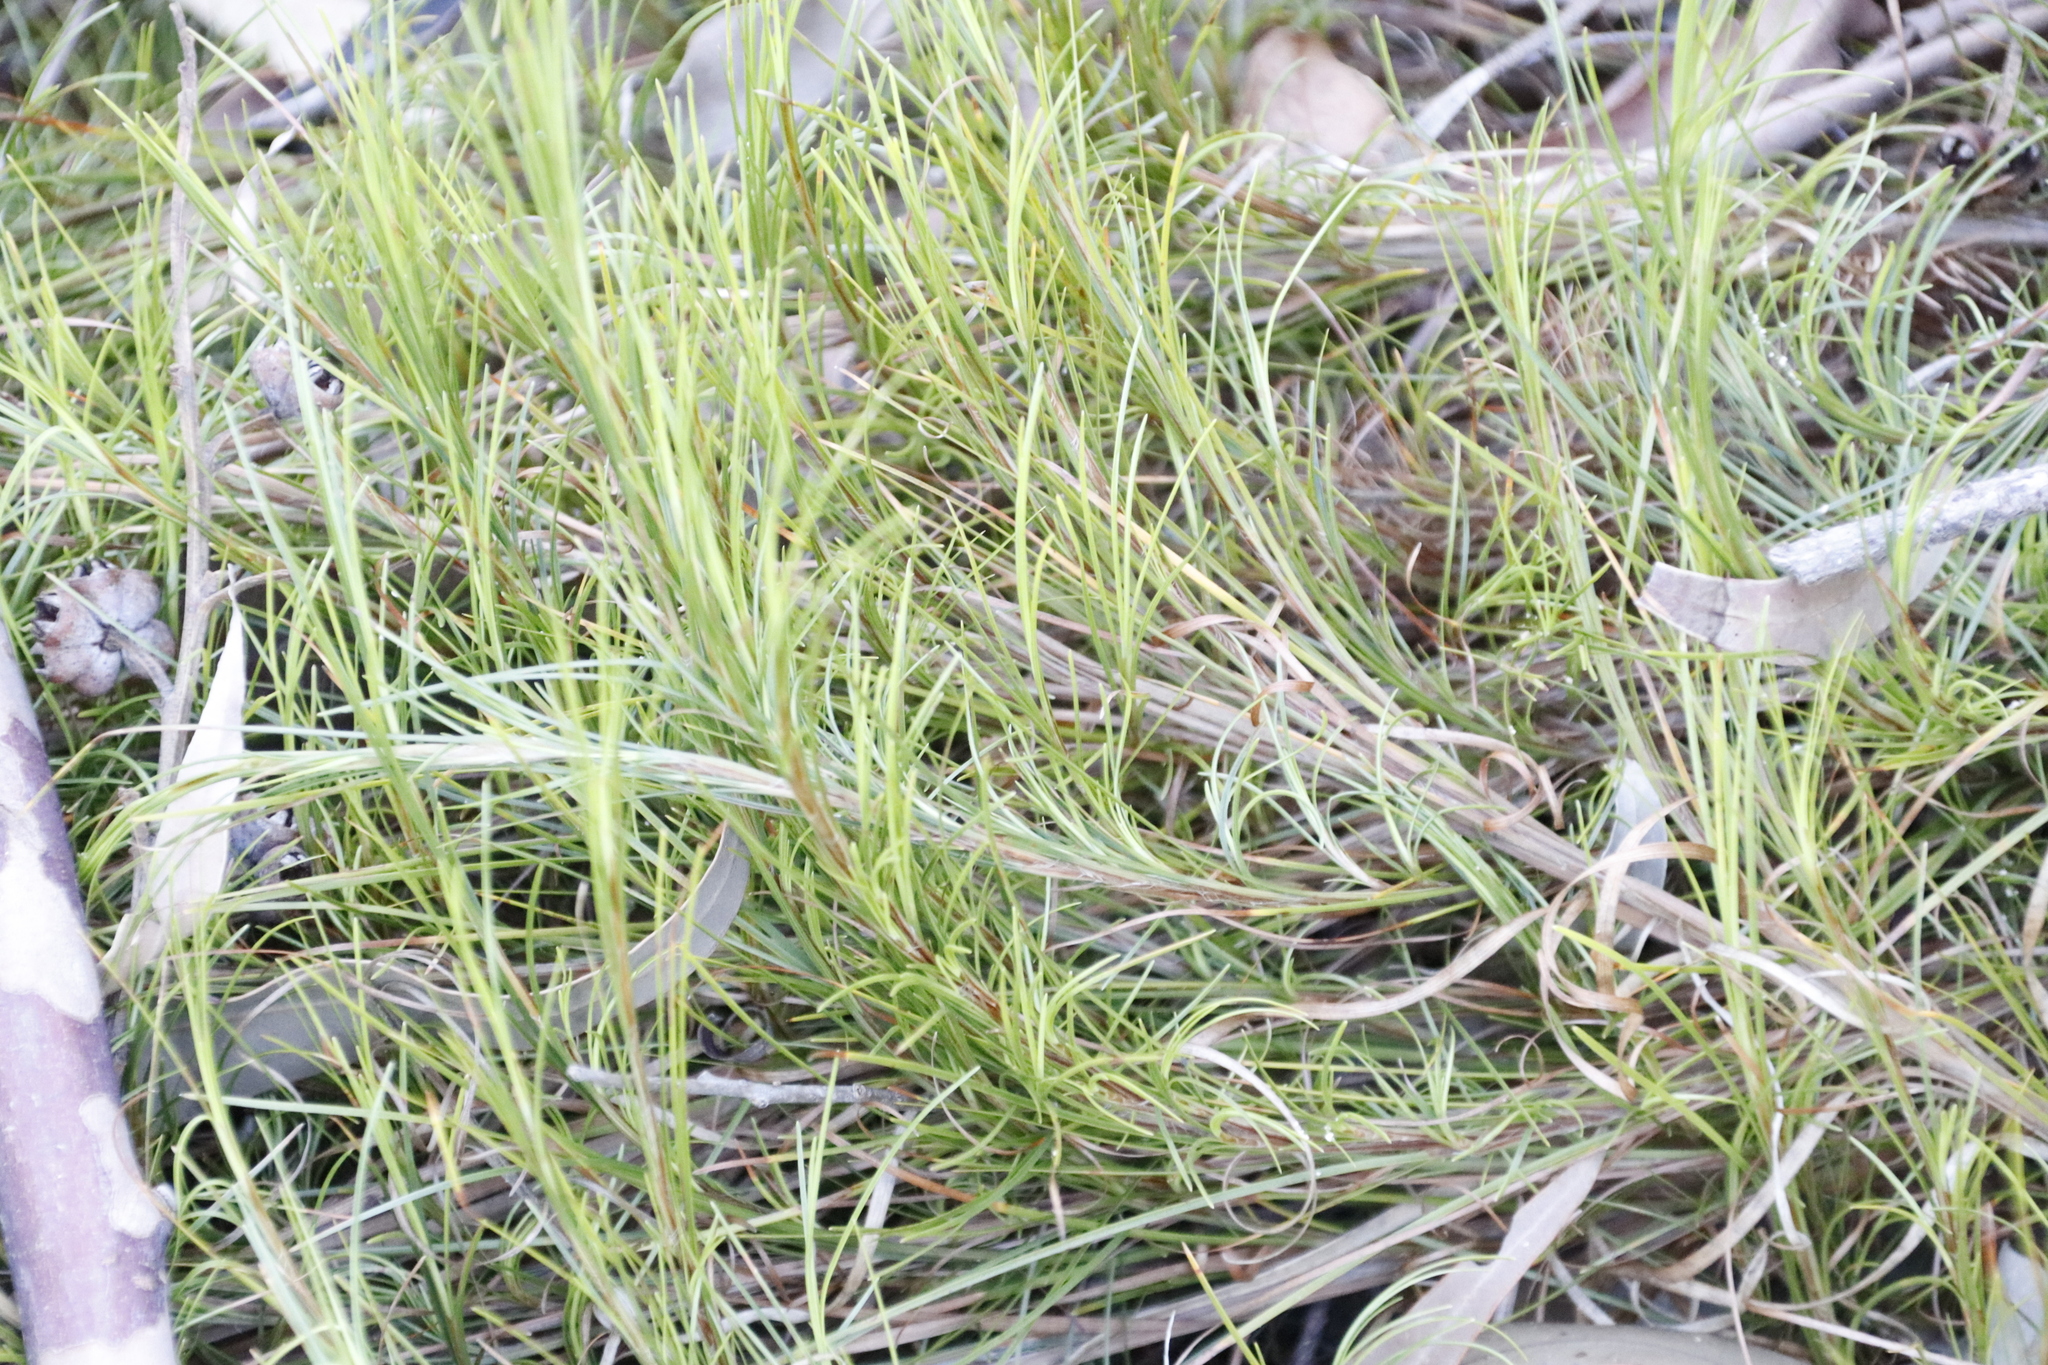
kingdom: Plantae
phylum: Tracheophyta
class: Liliopsida
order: Poales
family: Cyperaceae
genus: Ficinia
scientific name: Ficinia ramosissima
